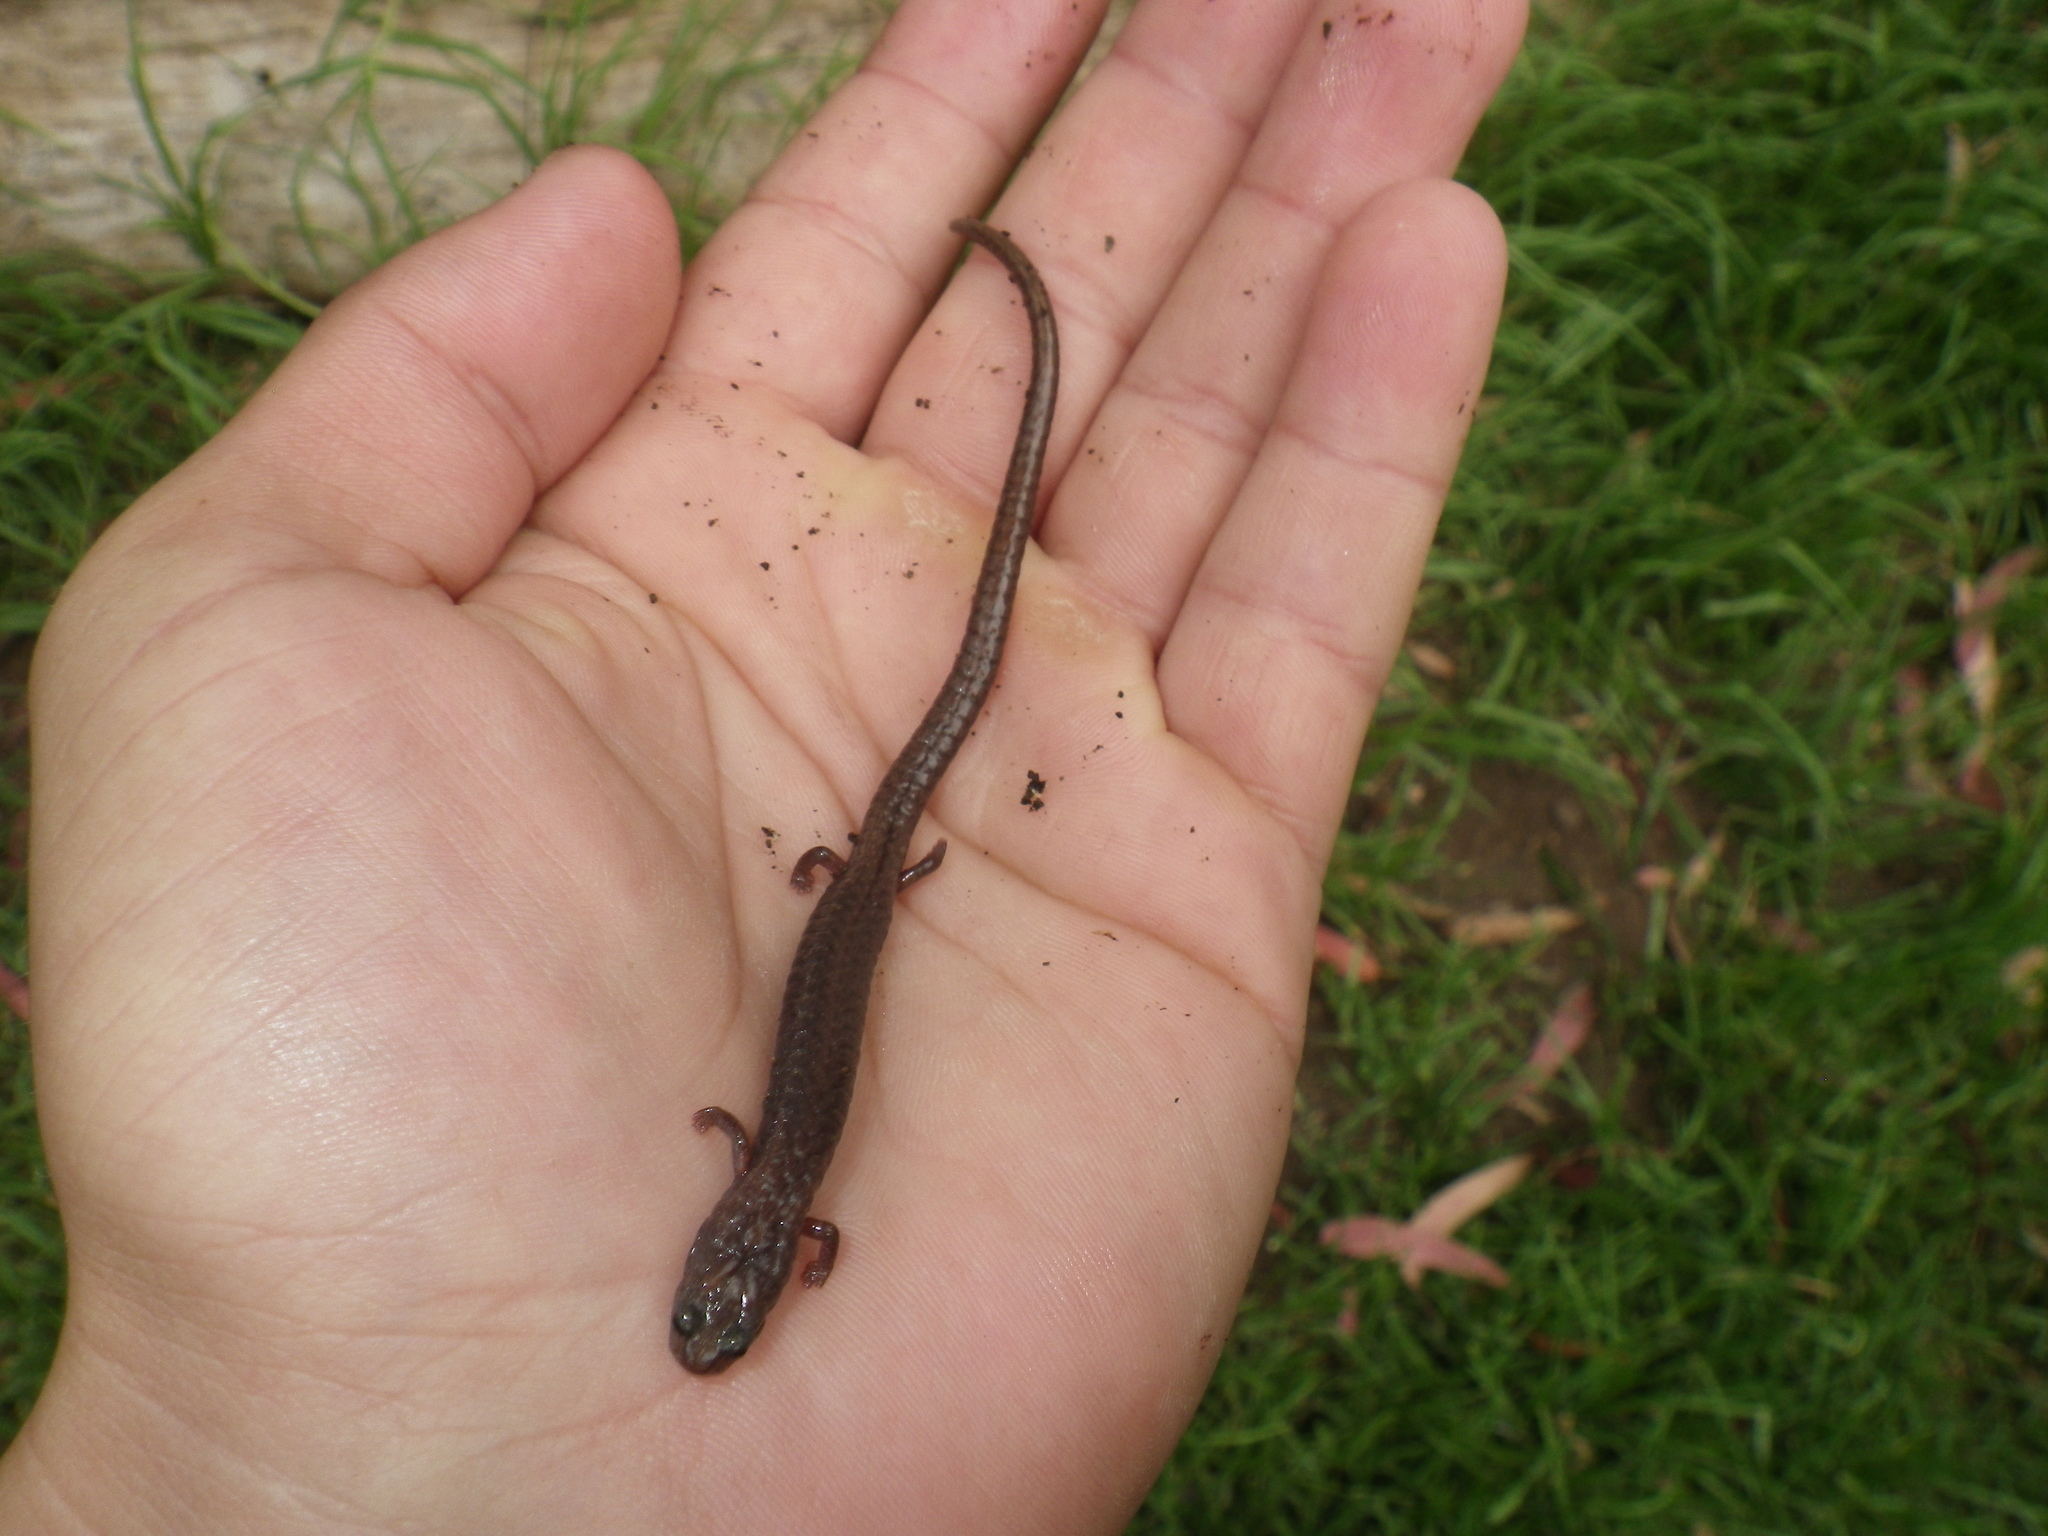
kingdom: Animalia
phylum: Chordata
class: Amphibia
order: Caudata
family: Plethodontidae
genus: Batrachoseps
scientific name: Batrachoseps attenuatus
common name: California slender salamander
